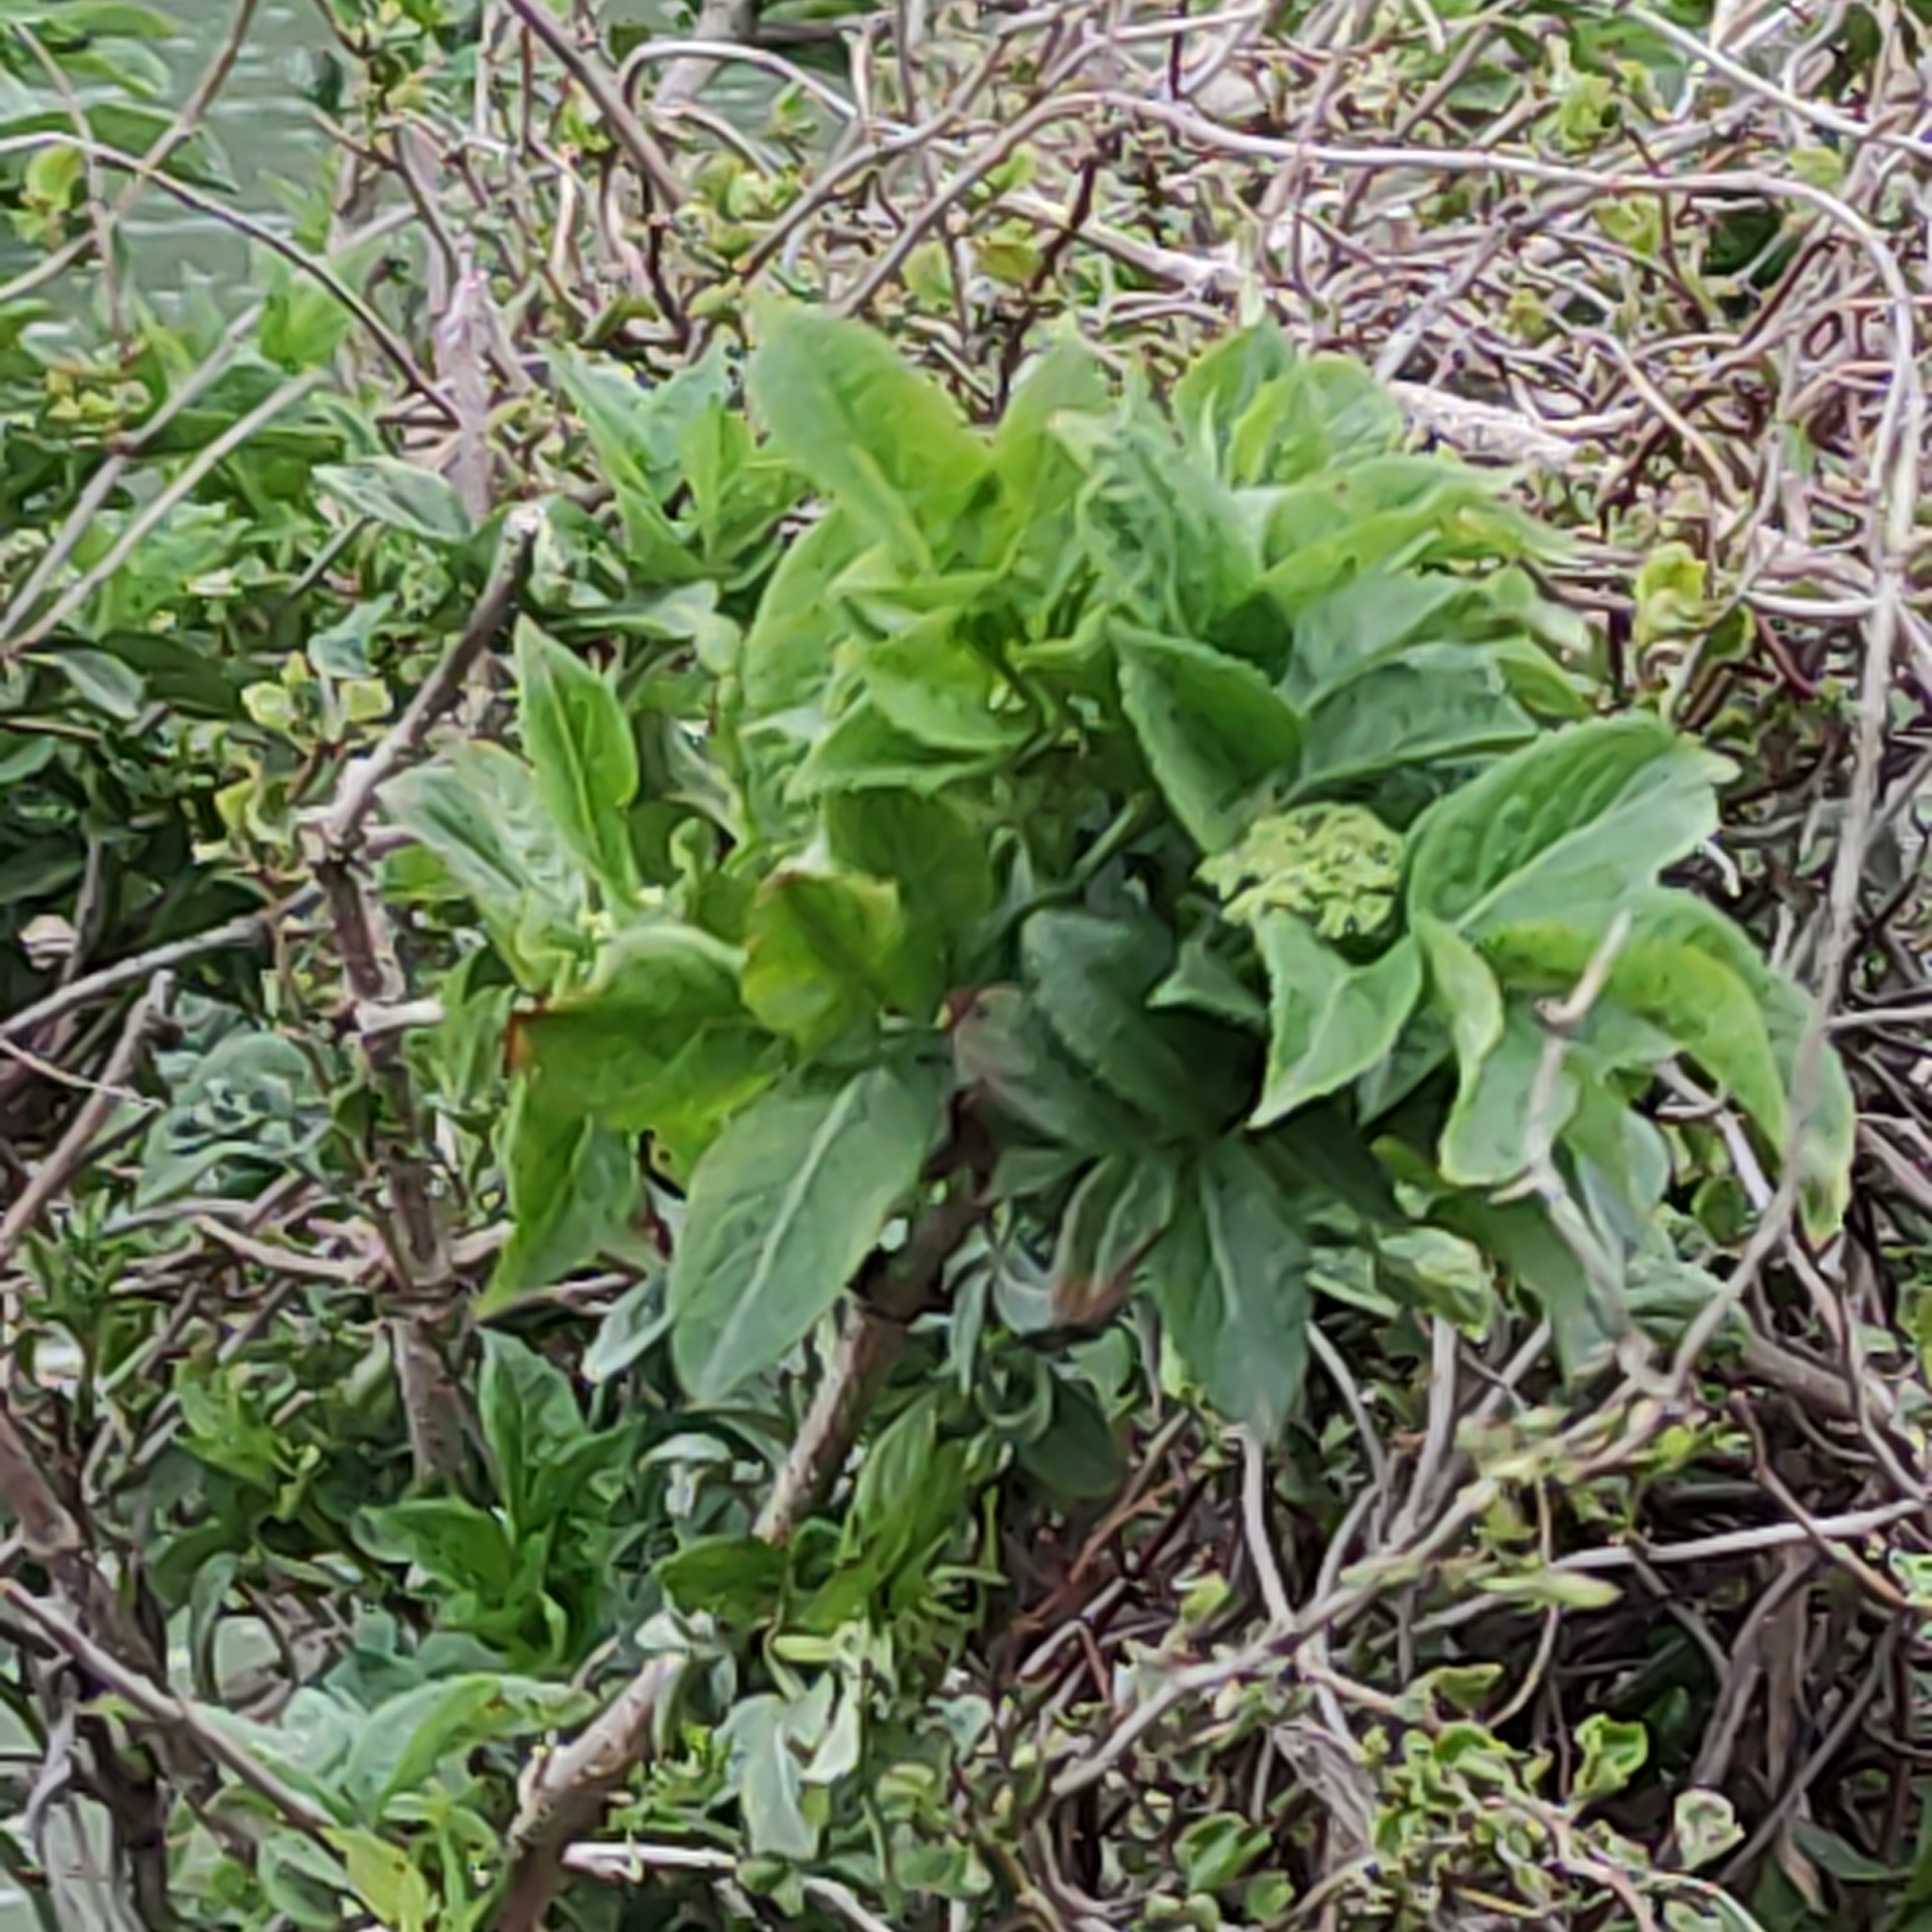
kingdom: Plantae
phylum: Tracheophyta
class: Magnoliopsida
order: Dipsacales
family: Viburnaceae
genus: Sambucus
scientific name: Sambucus nigra
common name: Elder
